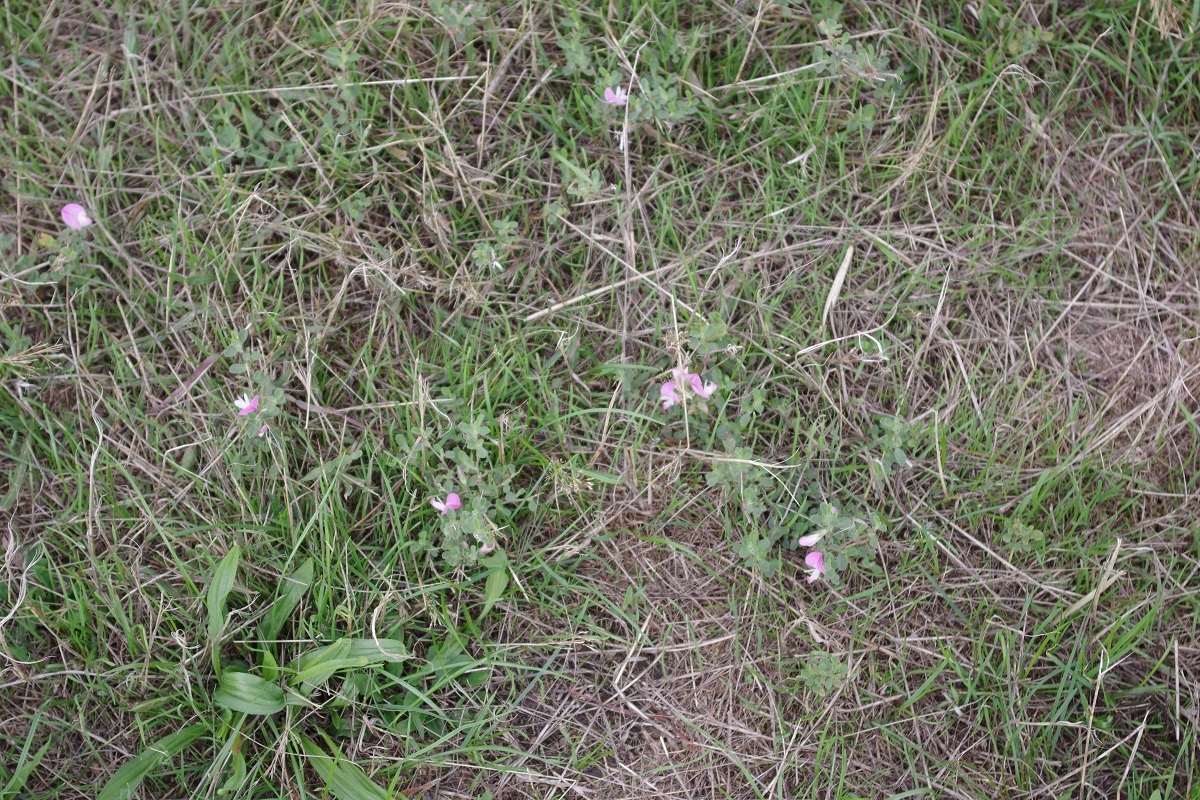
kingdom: Plantae
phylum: Tracheophyta
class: Magnoliopsida
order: Fabales
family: Fabaceae
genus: Ononis
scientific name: Ononis spinosa
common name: Spiny restharrow
